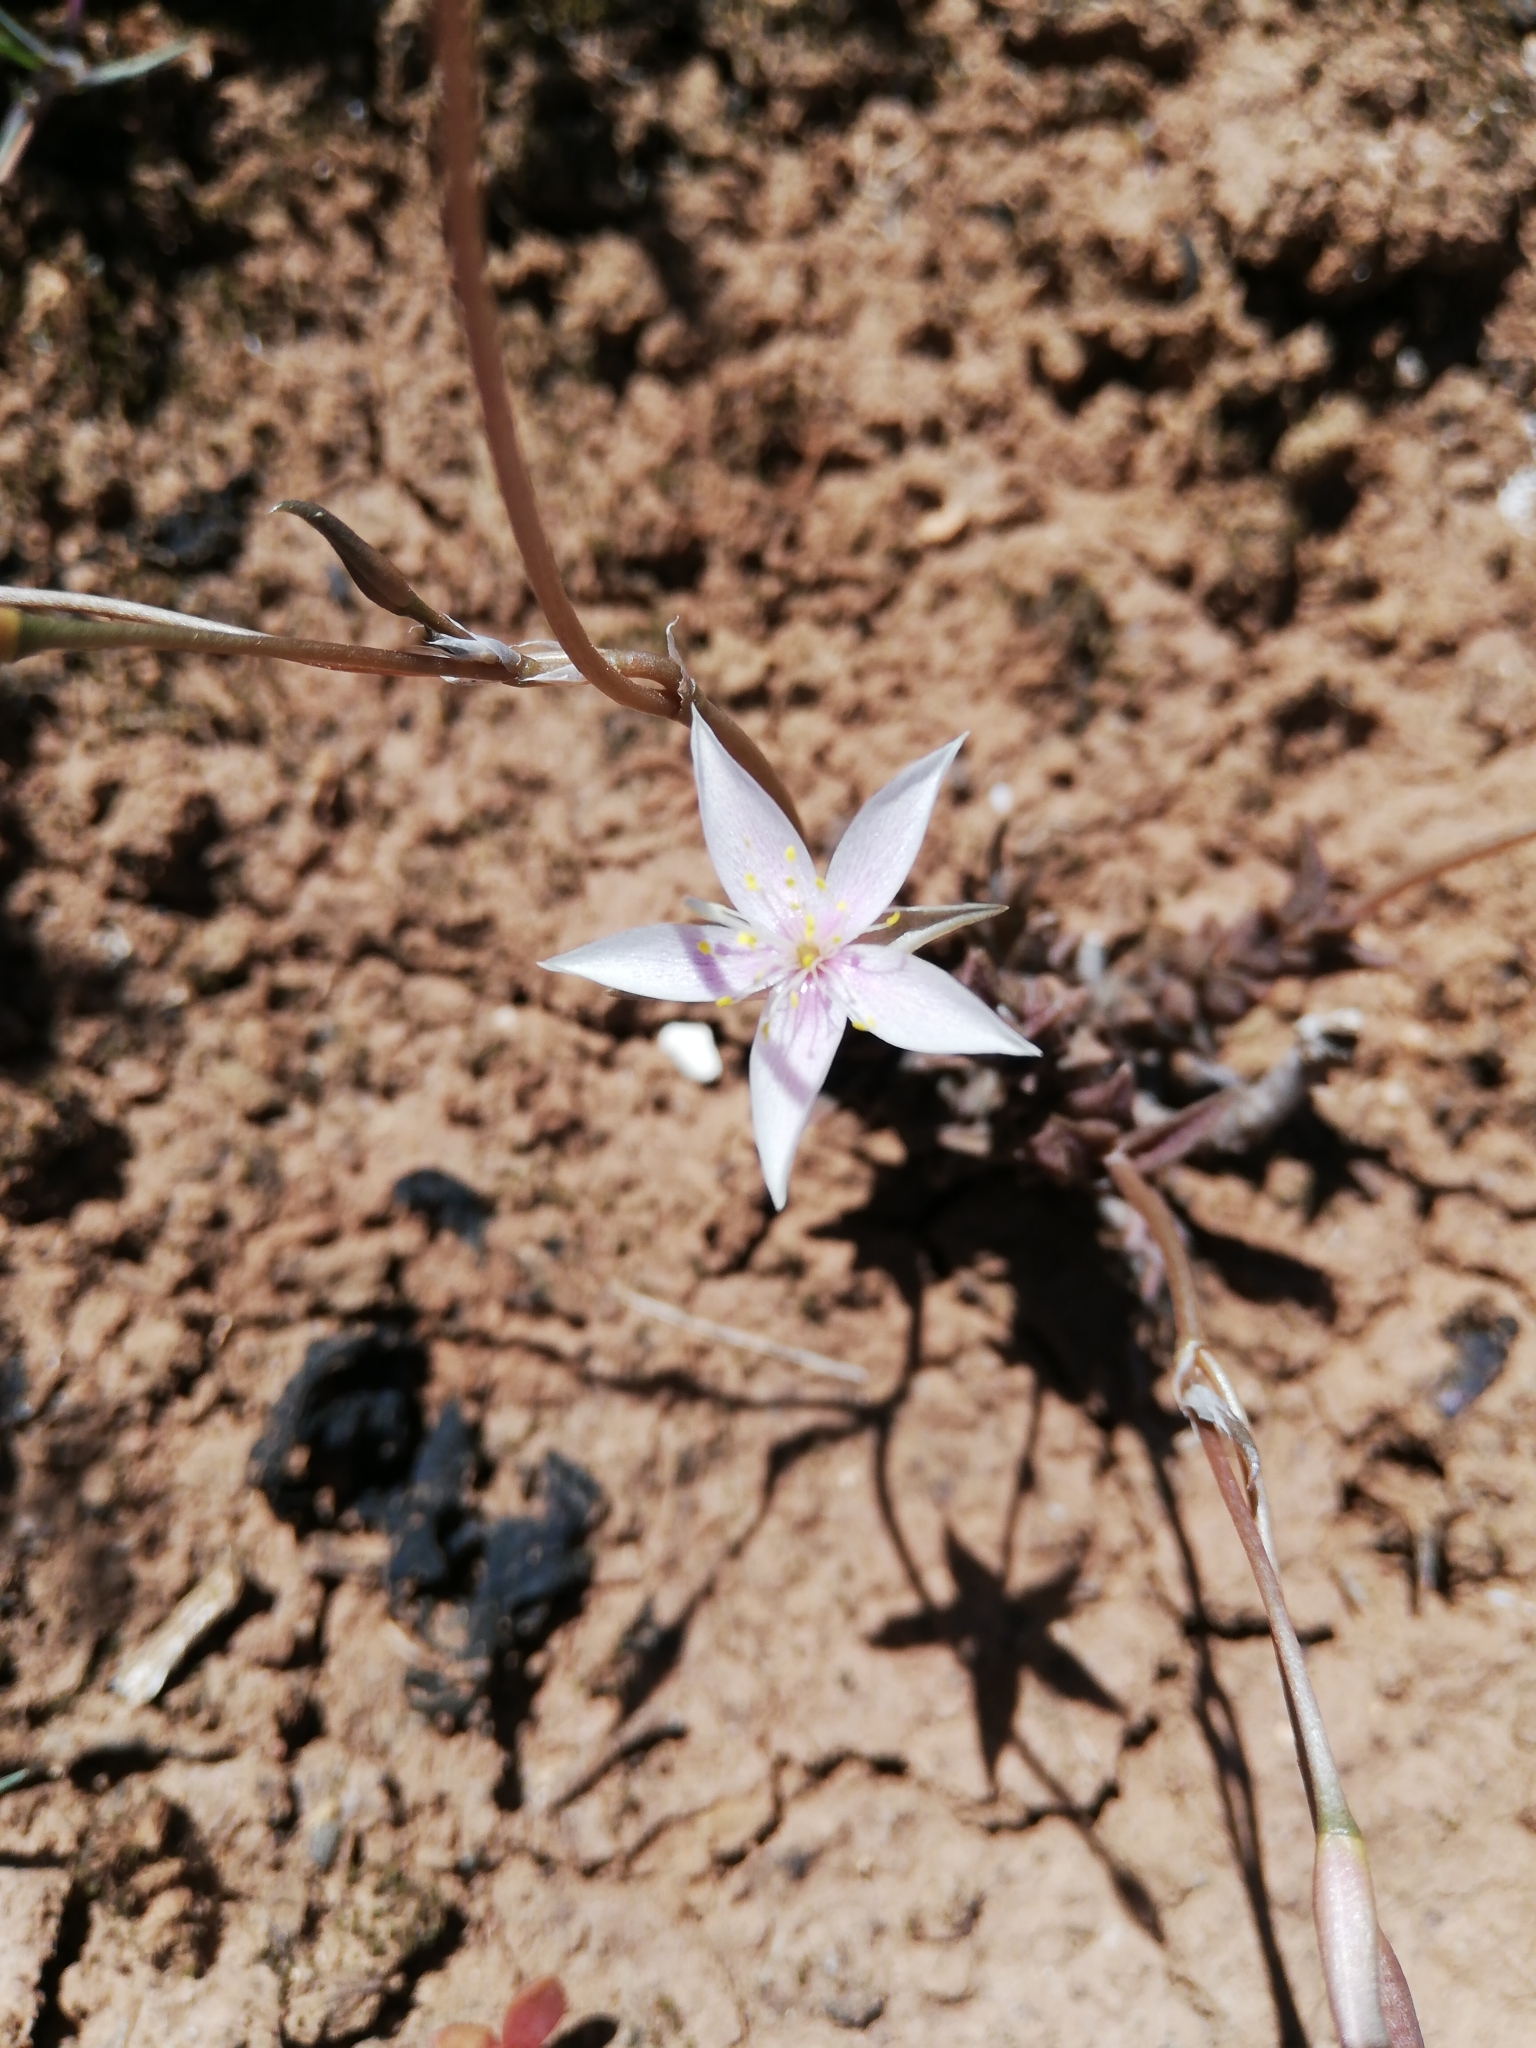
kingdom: Plantae
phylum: Tracheophyta
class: Magnoliopsida
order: Caryophyllales
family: Anacampserotaceae
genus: Anacampseros
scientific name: Anacampseros arachnoides
